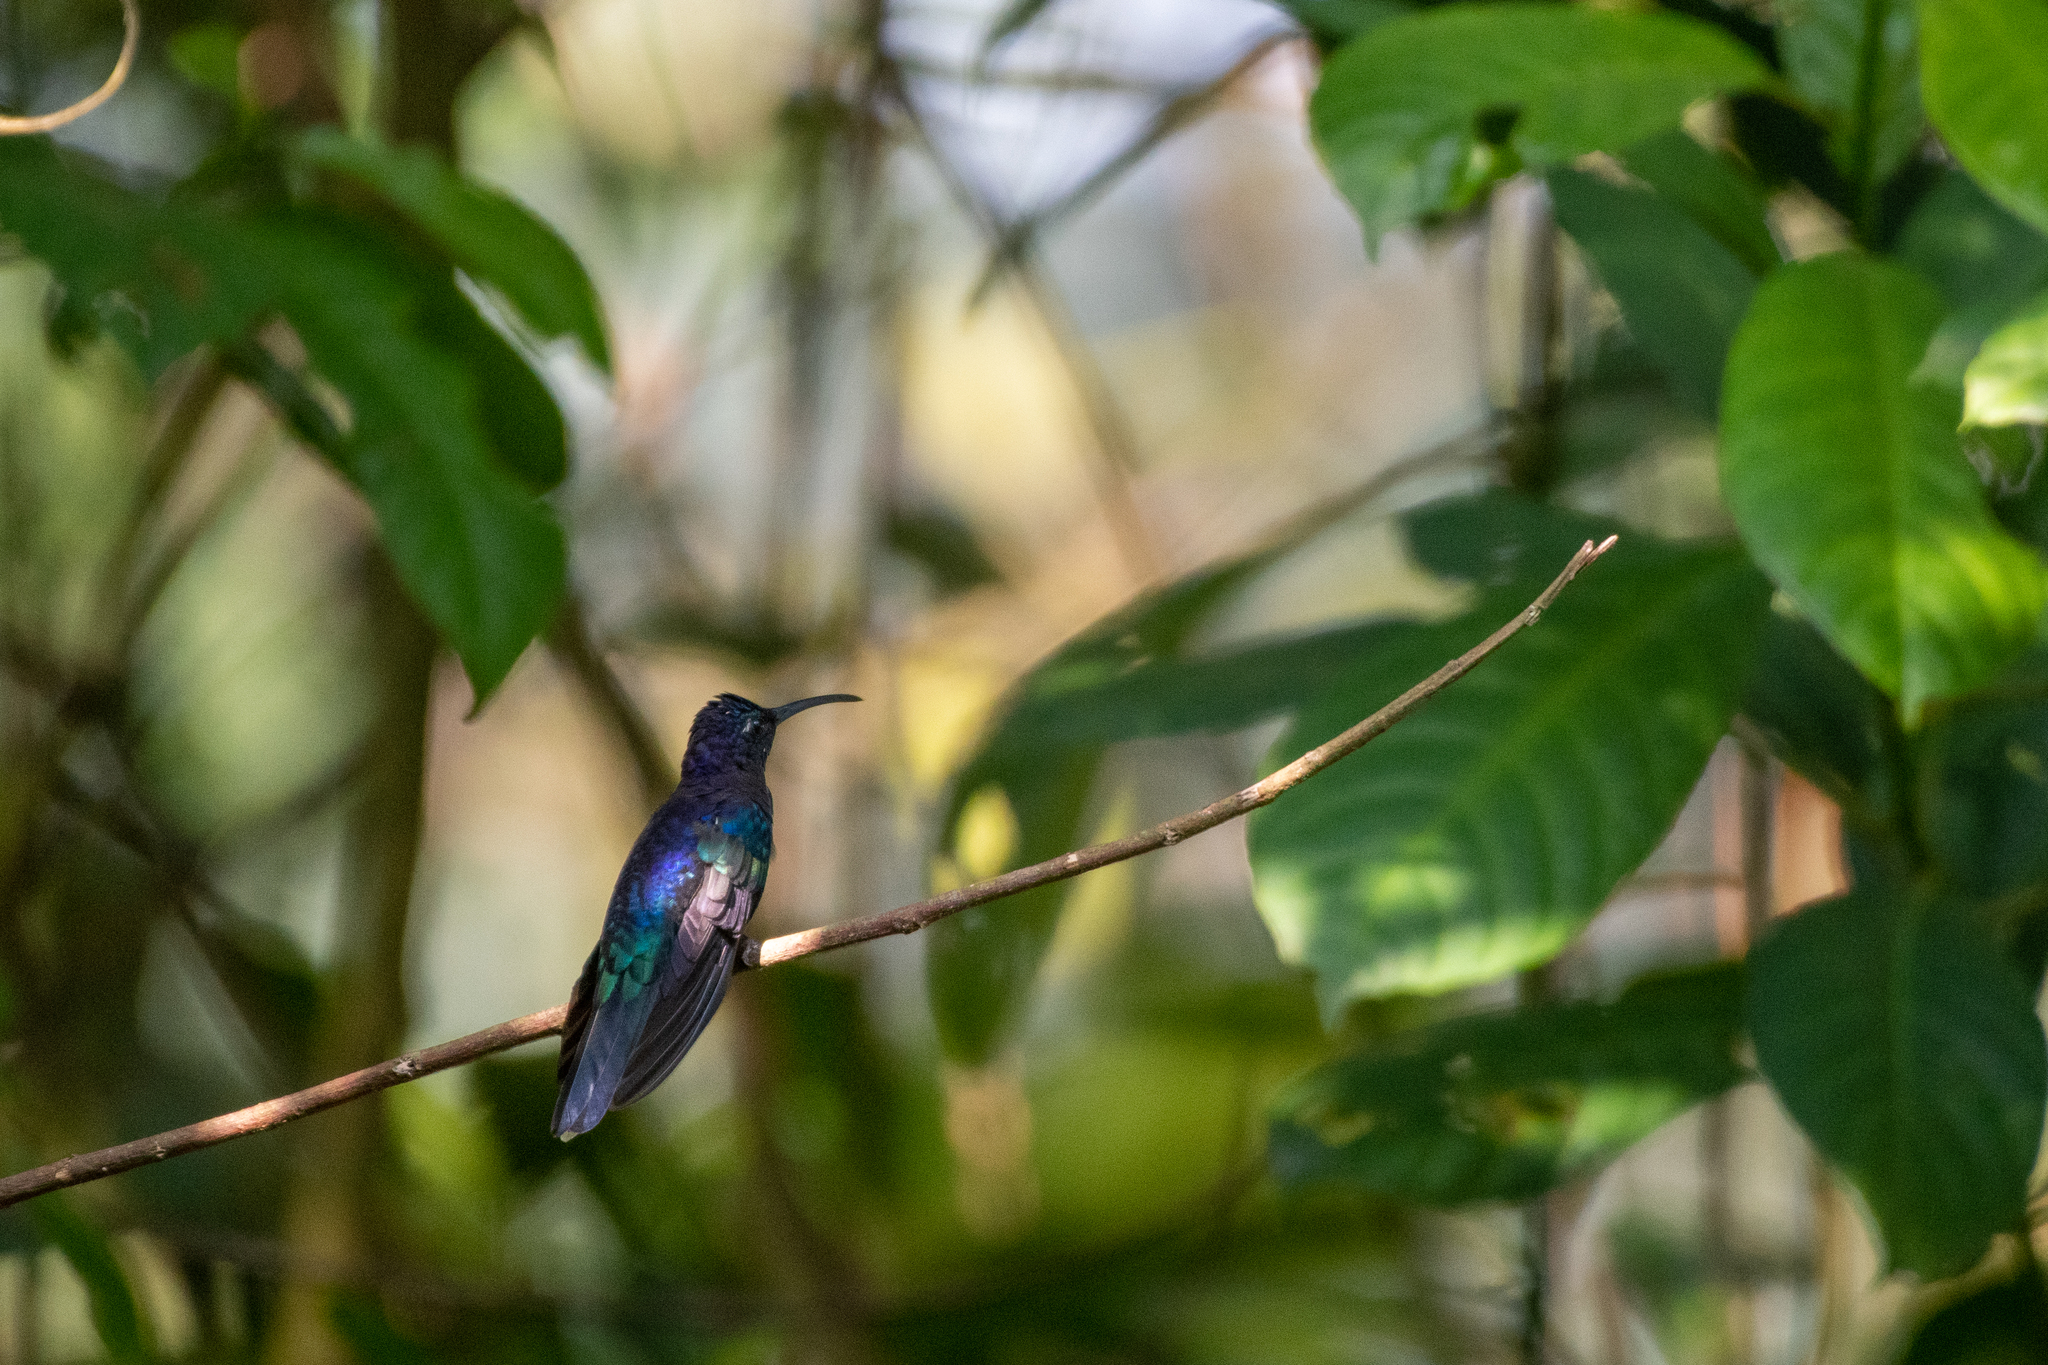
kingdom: Animalia
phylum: Chordata
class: Aves
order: Apodiformes
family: Trochilidae
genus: Campylopterus
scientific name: Campylopterus hemileucurus
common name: Violet sabrewing
